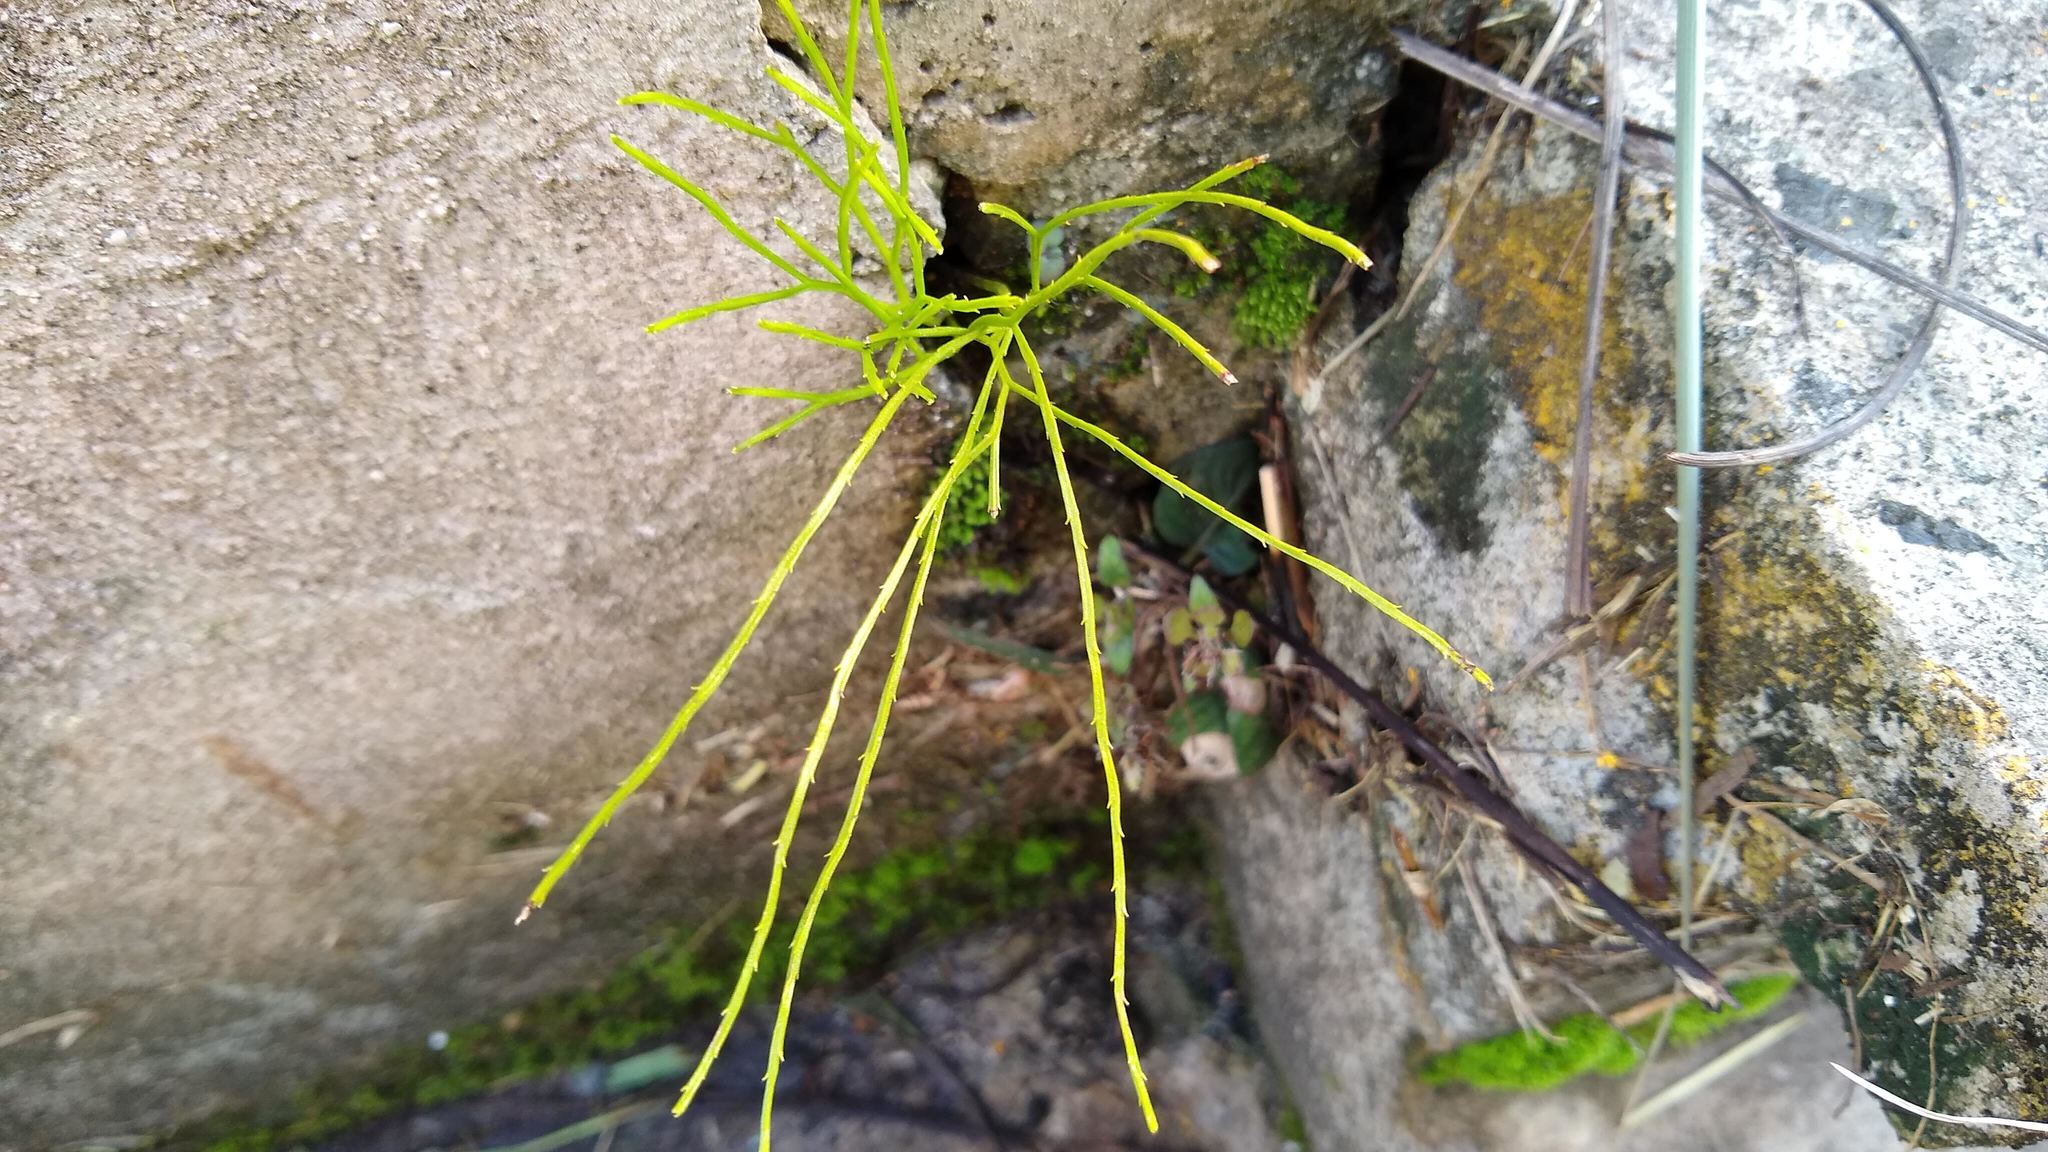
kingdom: Plantae
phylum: Tracheophyta
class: Polypodiopsida
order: Psilotales
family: Psilotaceae
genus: Psilotum
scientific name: Psilotum nudum
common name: Skeleton fork fern
